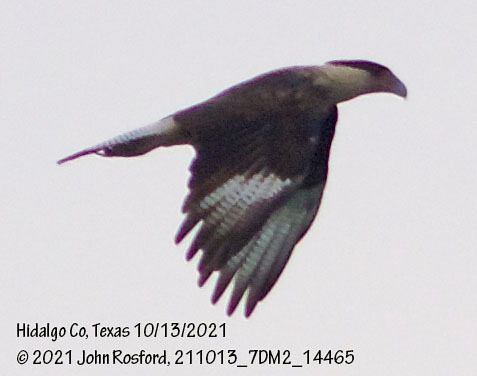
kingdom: Animalia
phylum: Chordata
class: Aves
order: Falconiformes
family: Falconidae
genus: Caracara
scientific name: Caracara plancus
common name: Southern caracara
